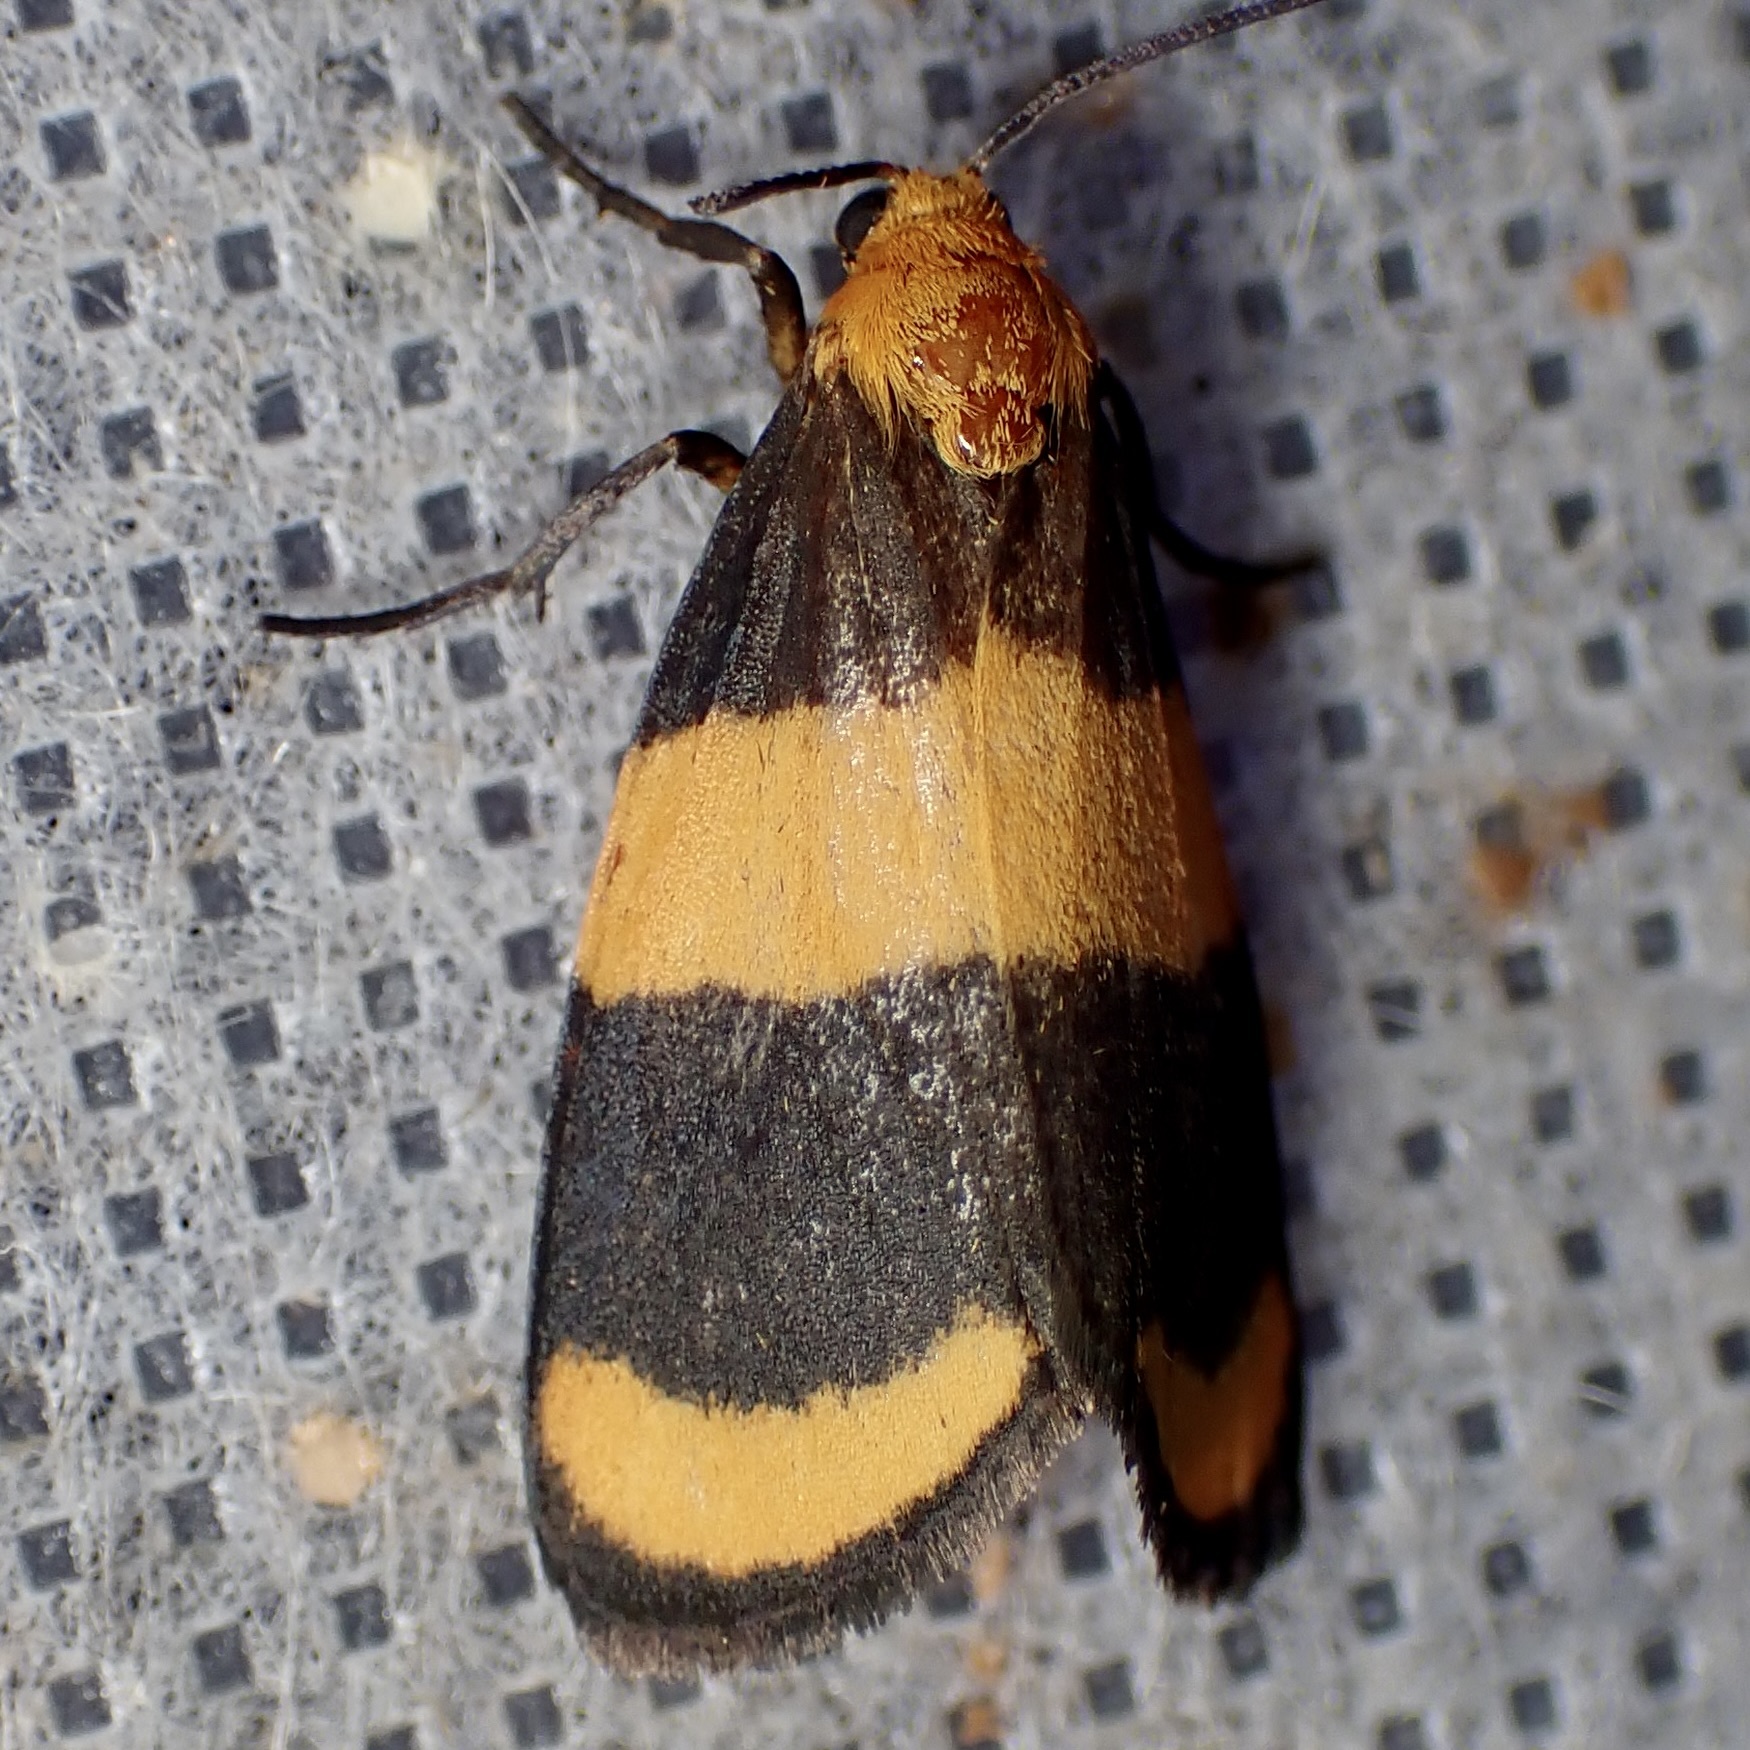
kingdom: Animalia
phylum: Arthropoda
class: Insecta
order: Lepidoptera
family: Erebidae
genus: Eudesmia
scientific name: Eudesmia arida
